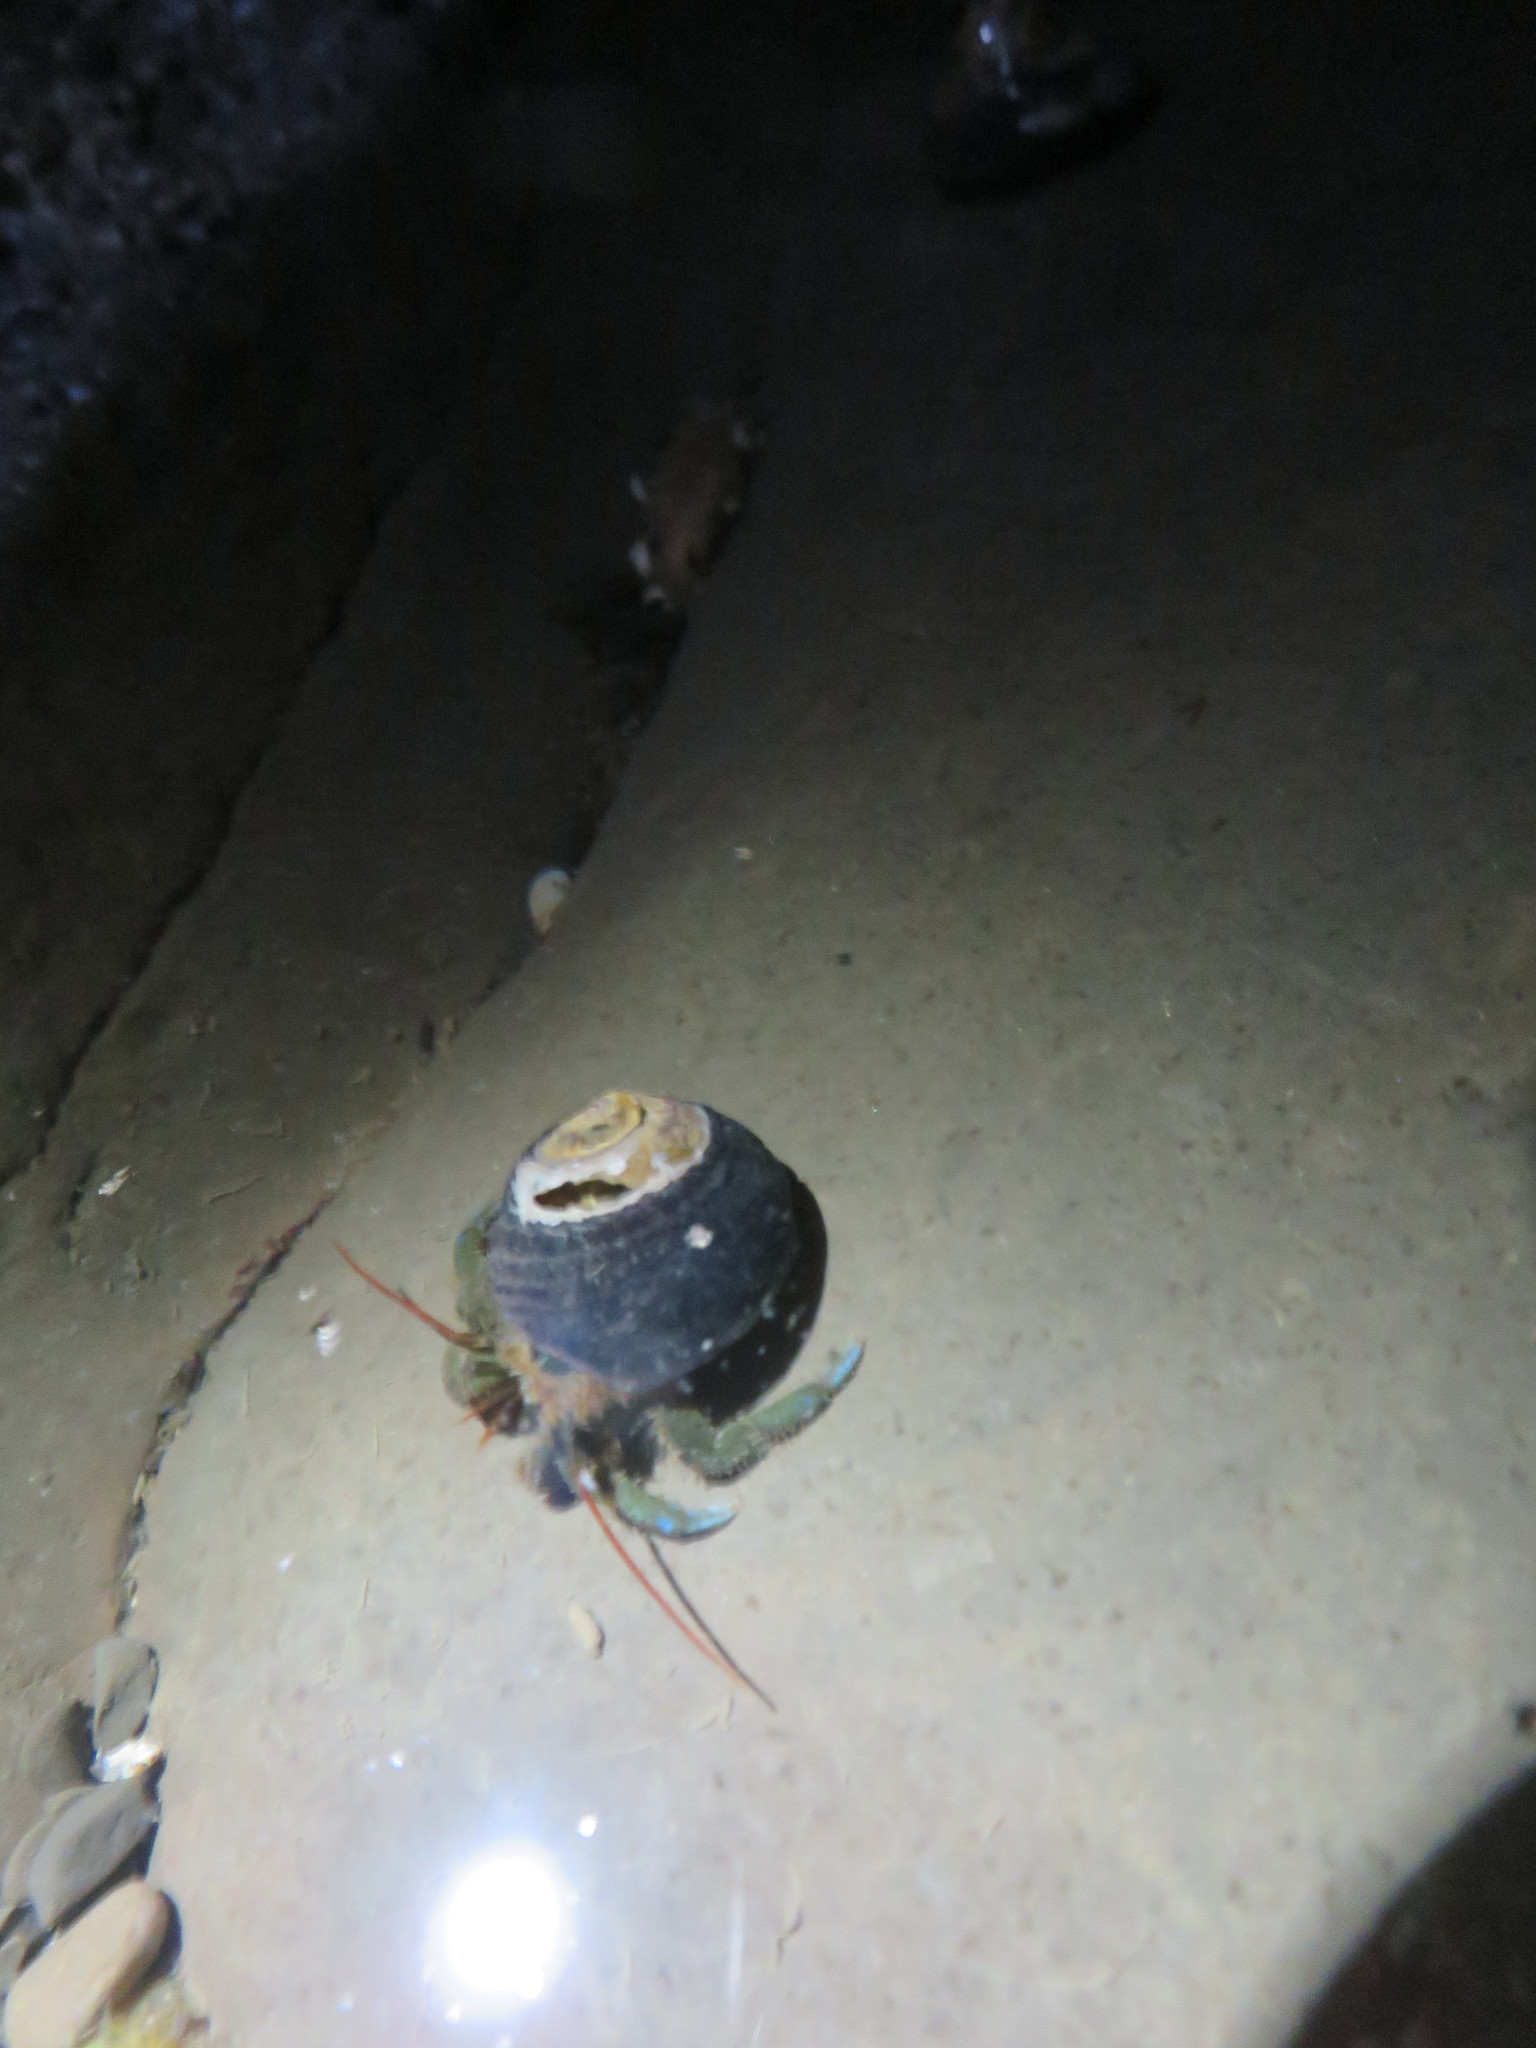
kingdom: Animalia
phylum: Arthropoda
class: Malacostraca
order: Decapoda
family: Paguridae
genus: Pagurus
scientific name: Pagurus samuelis
